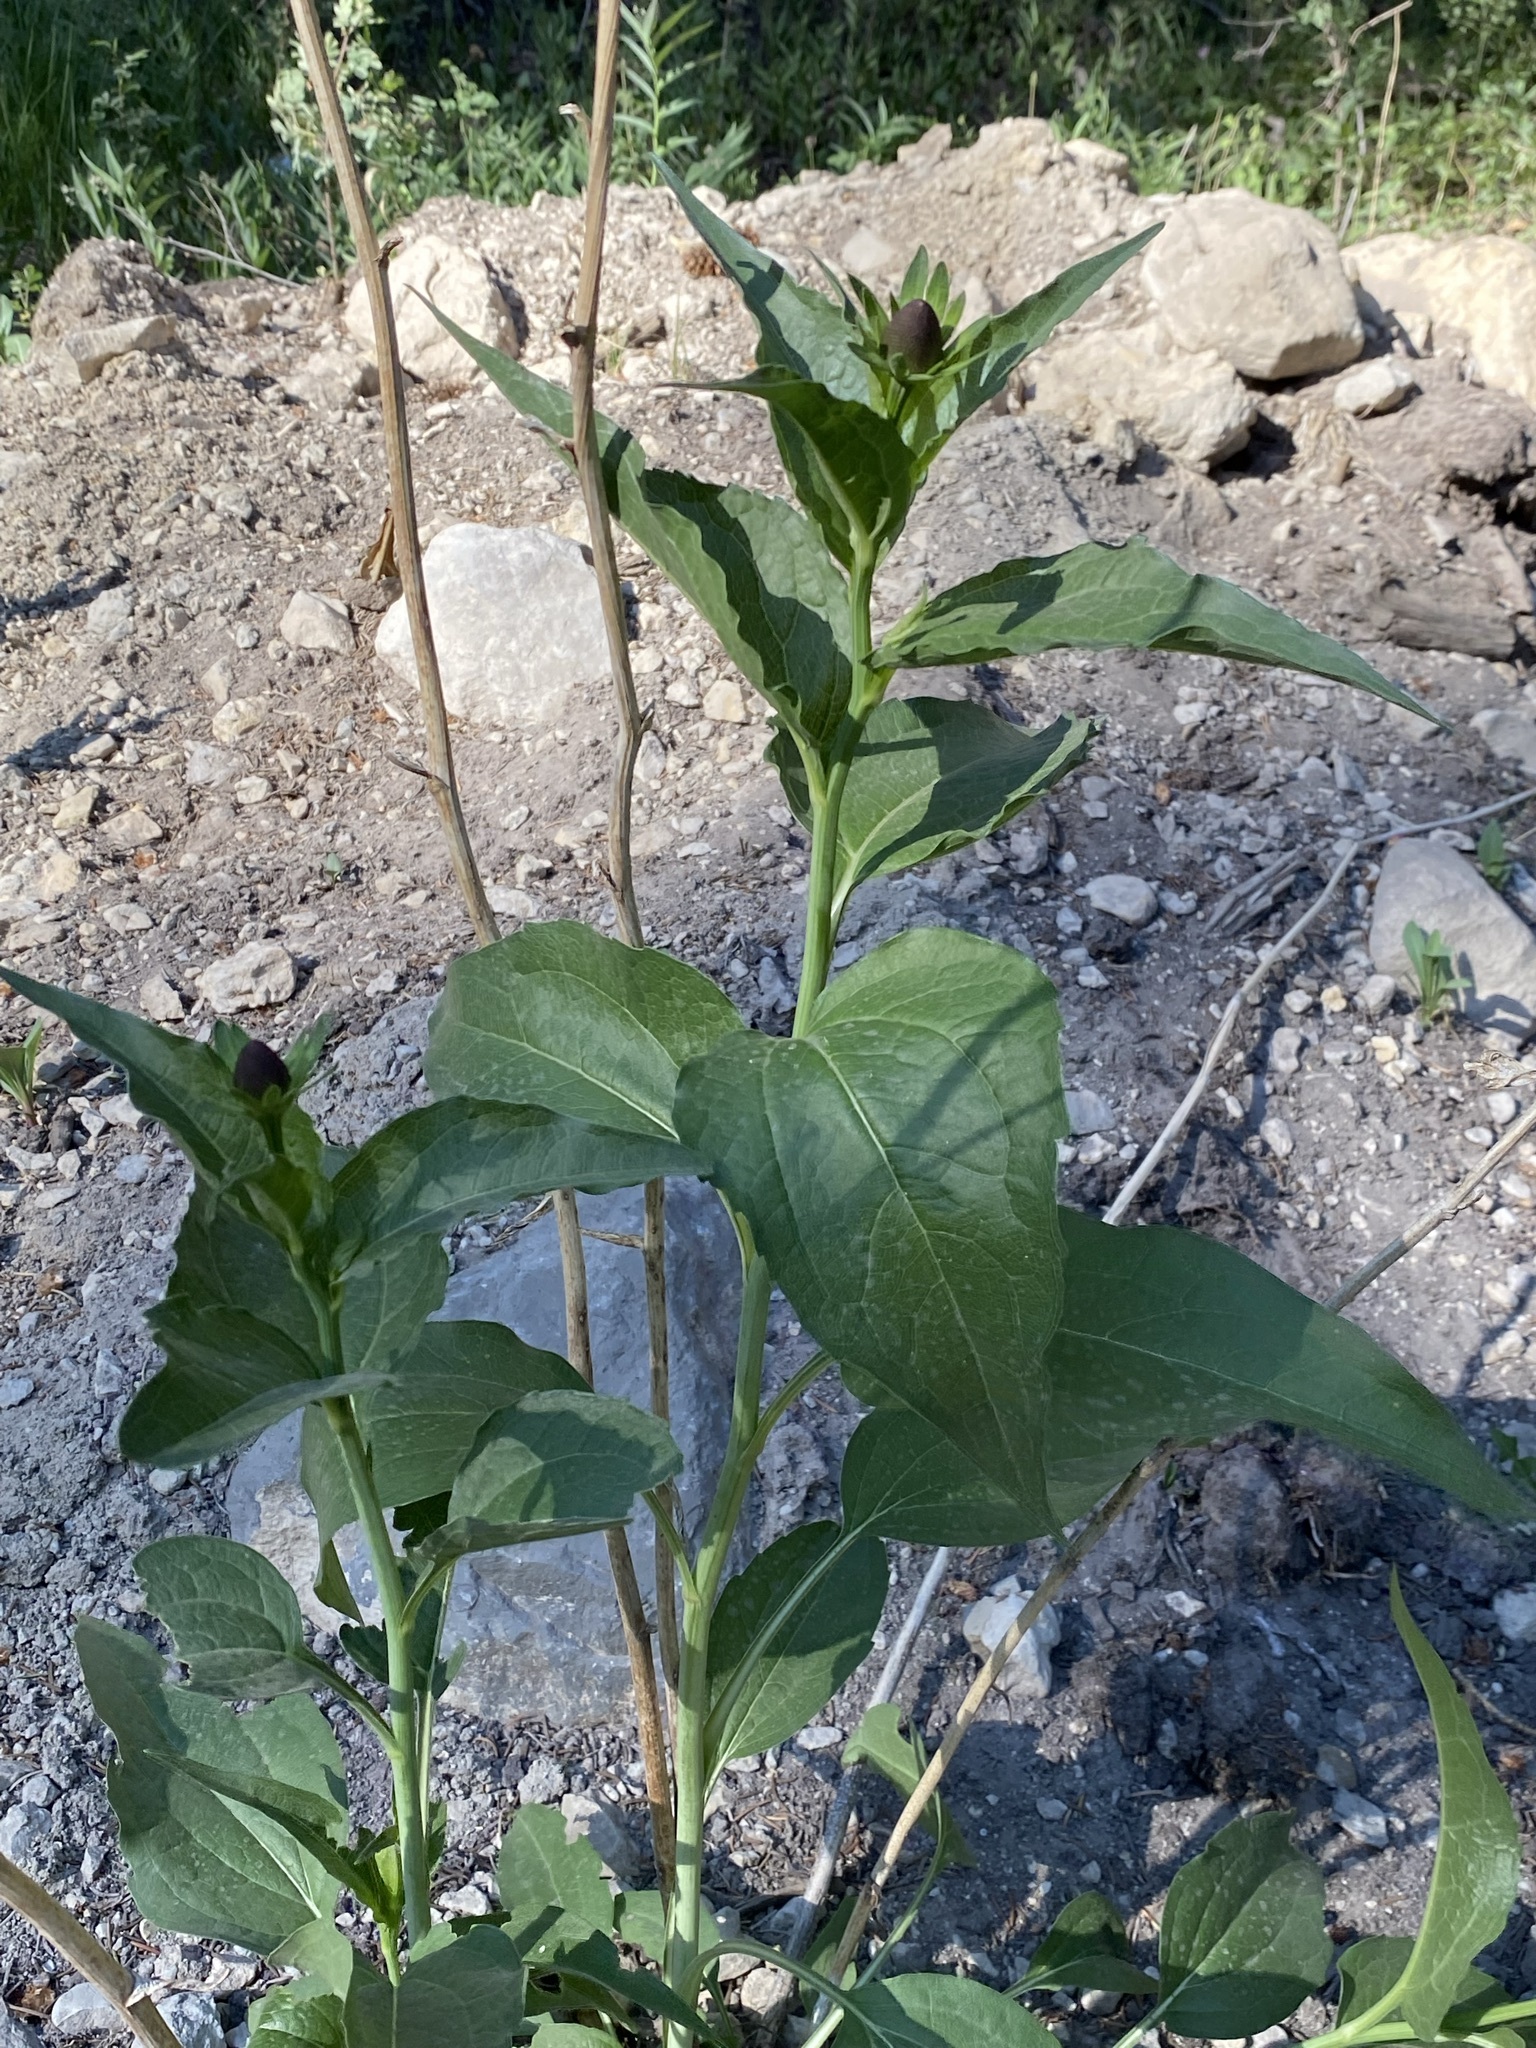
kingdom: Plantae
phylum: Tracheophyta
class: Magnoliopsida
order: Asterales
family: Asteraceae
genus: Rudbeckia
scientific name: Rudbeckia occidentalis
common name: Western coneflower
